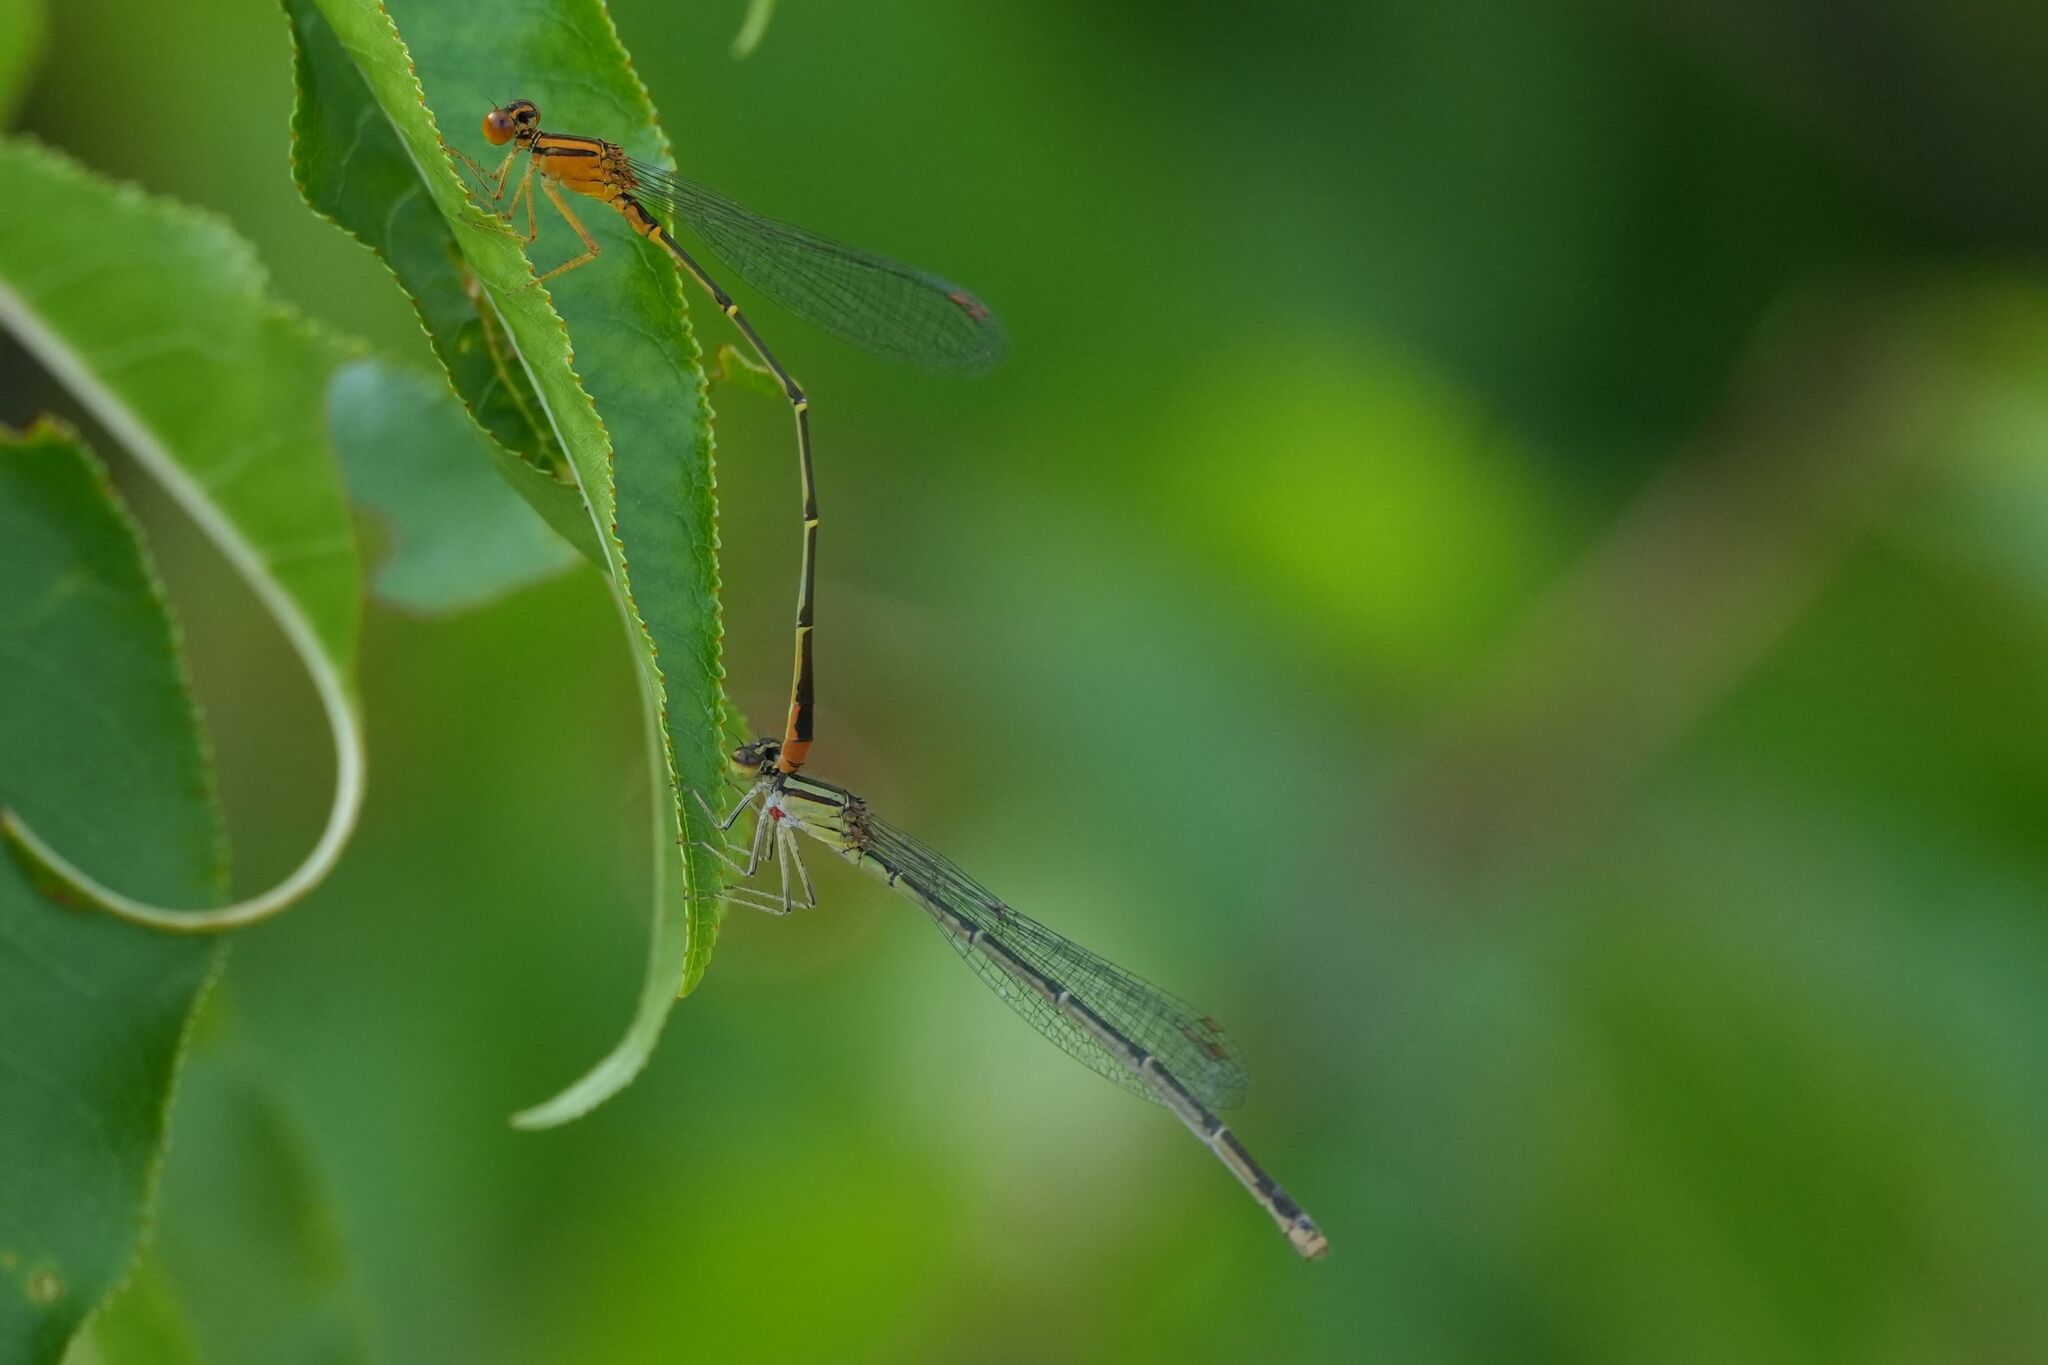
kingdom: Animalia
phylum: Arthropoda
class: Insecta
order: Odonata
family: Coenagrionidae
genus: Enallagma
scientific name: Enallagma signatum
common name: Orange bluet
